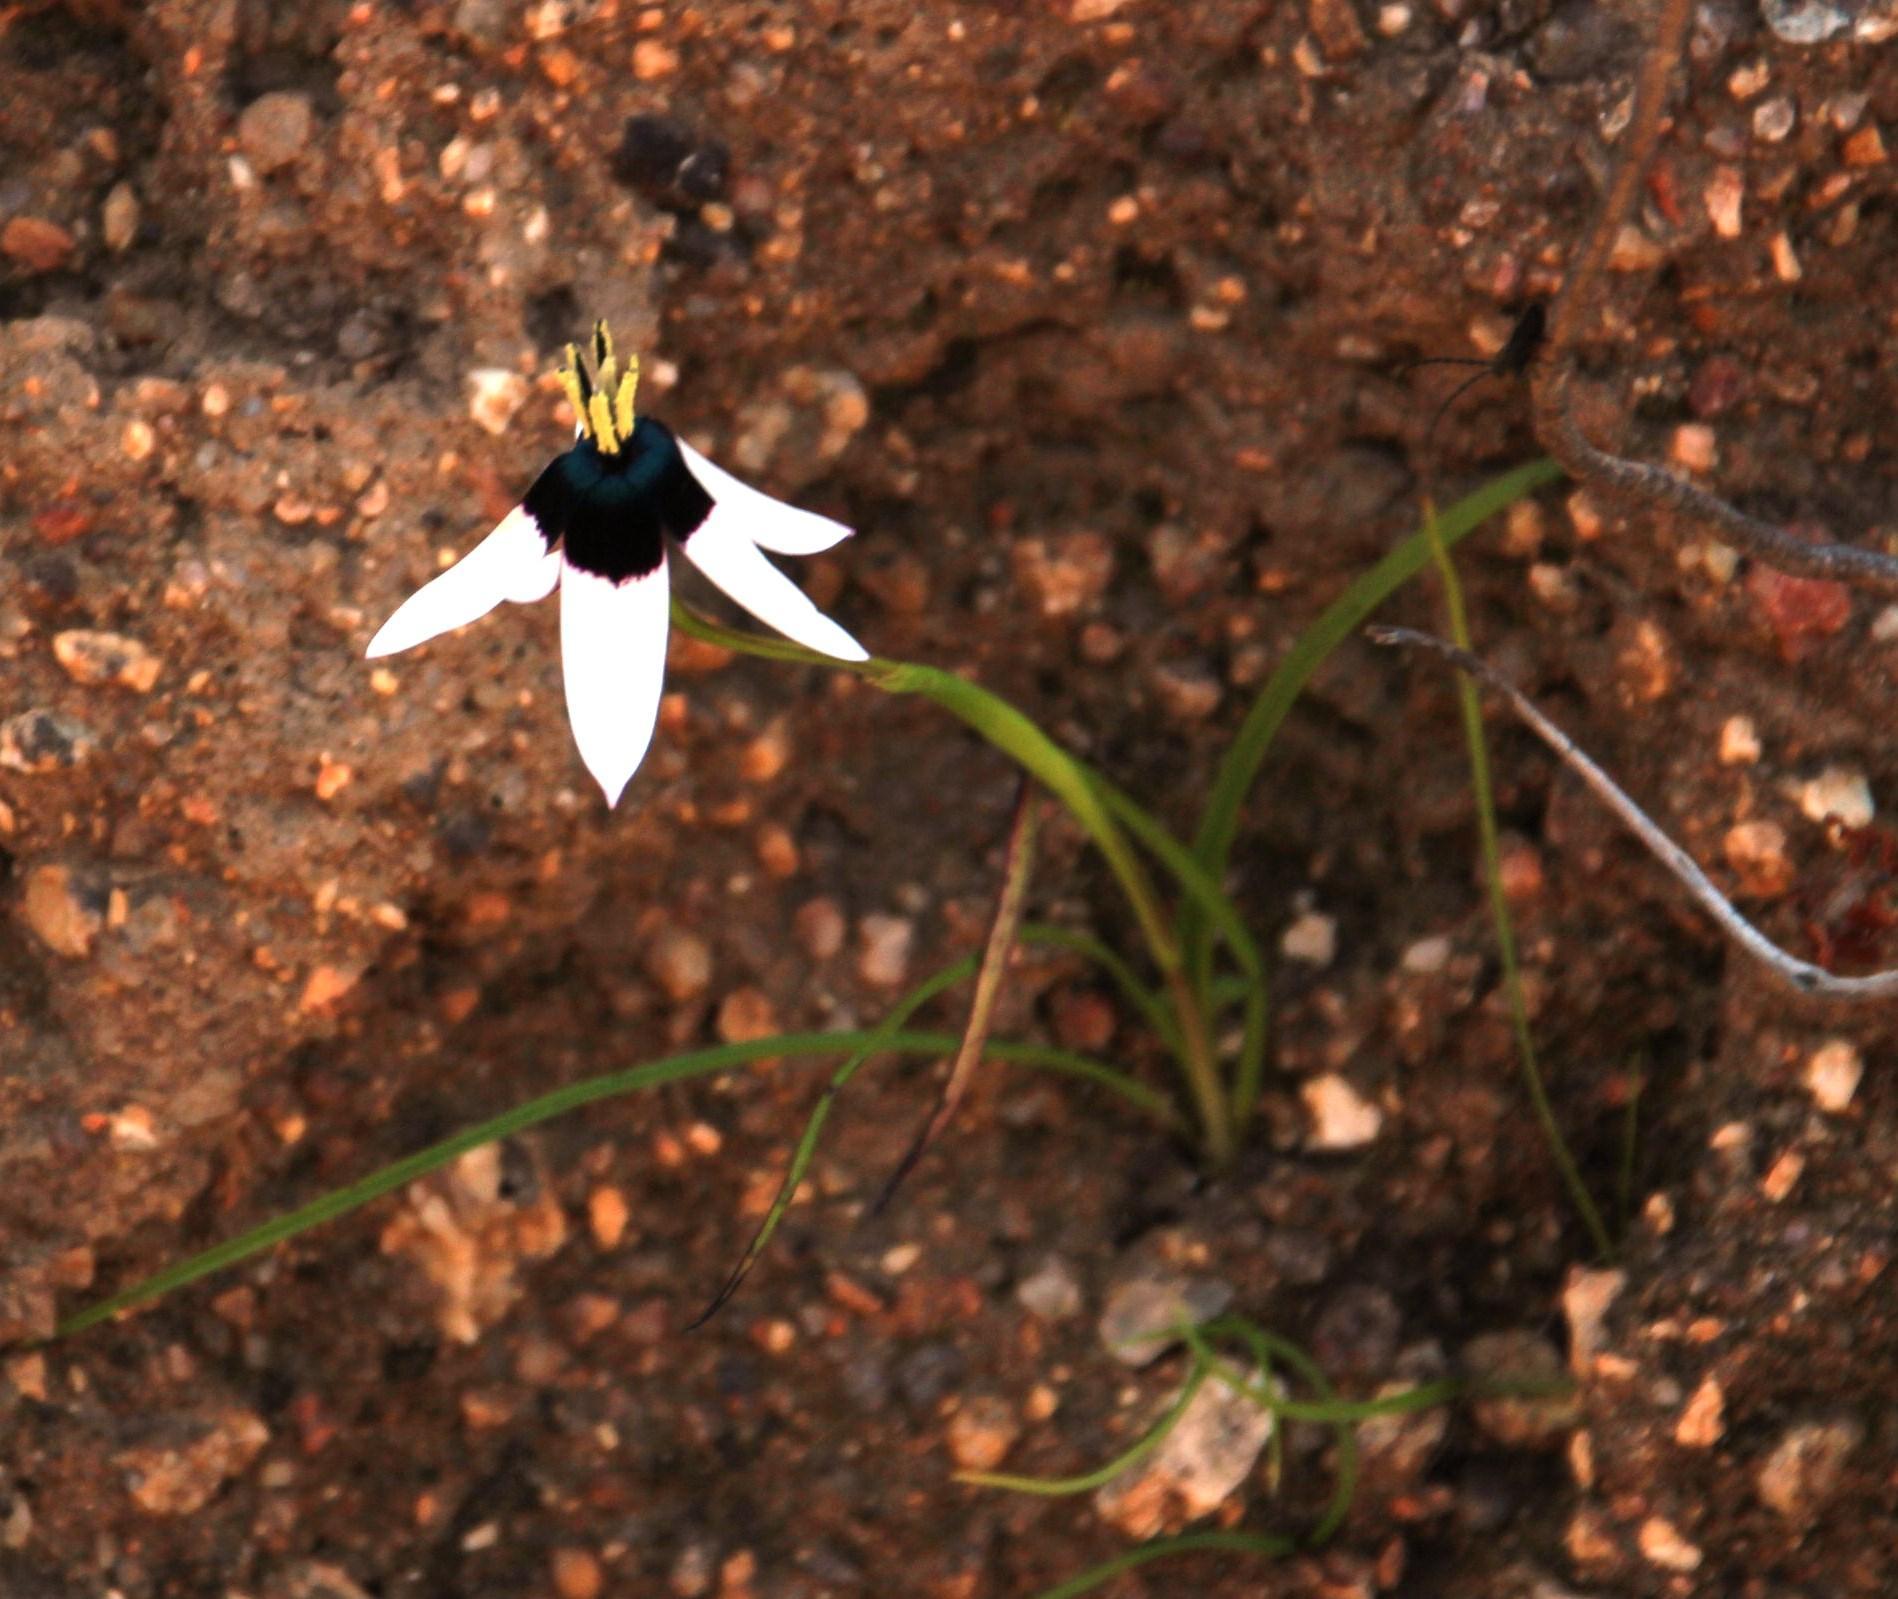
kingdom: Plantae
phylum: Tracheophyta
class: Liliopsida
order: Asparagales
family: Hypoxidaceae
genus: Pauridia
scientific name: Pauridia capensis
